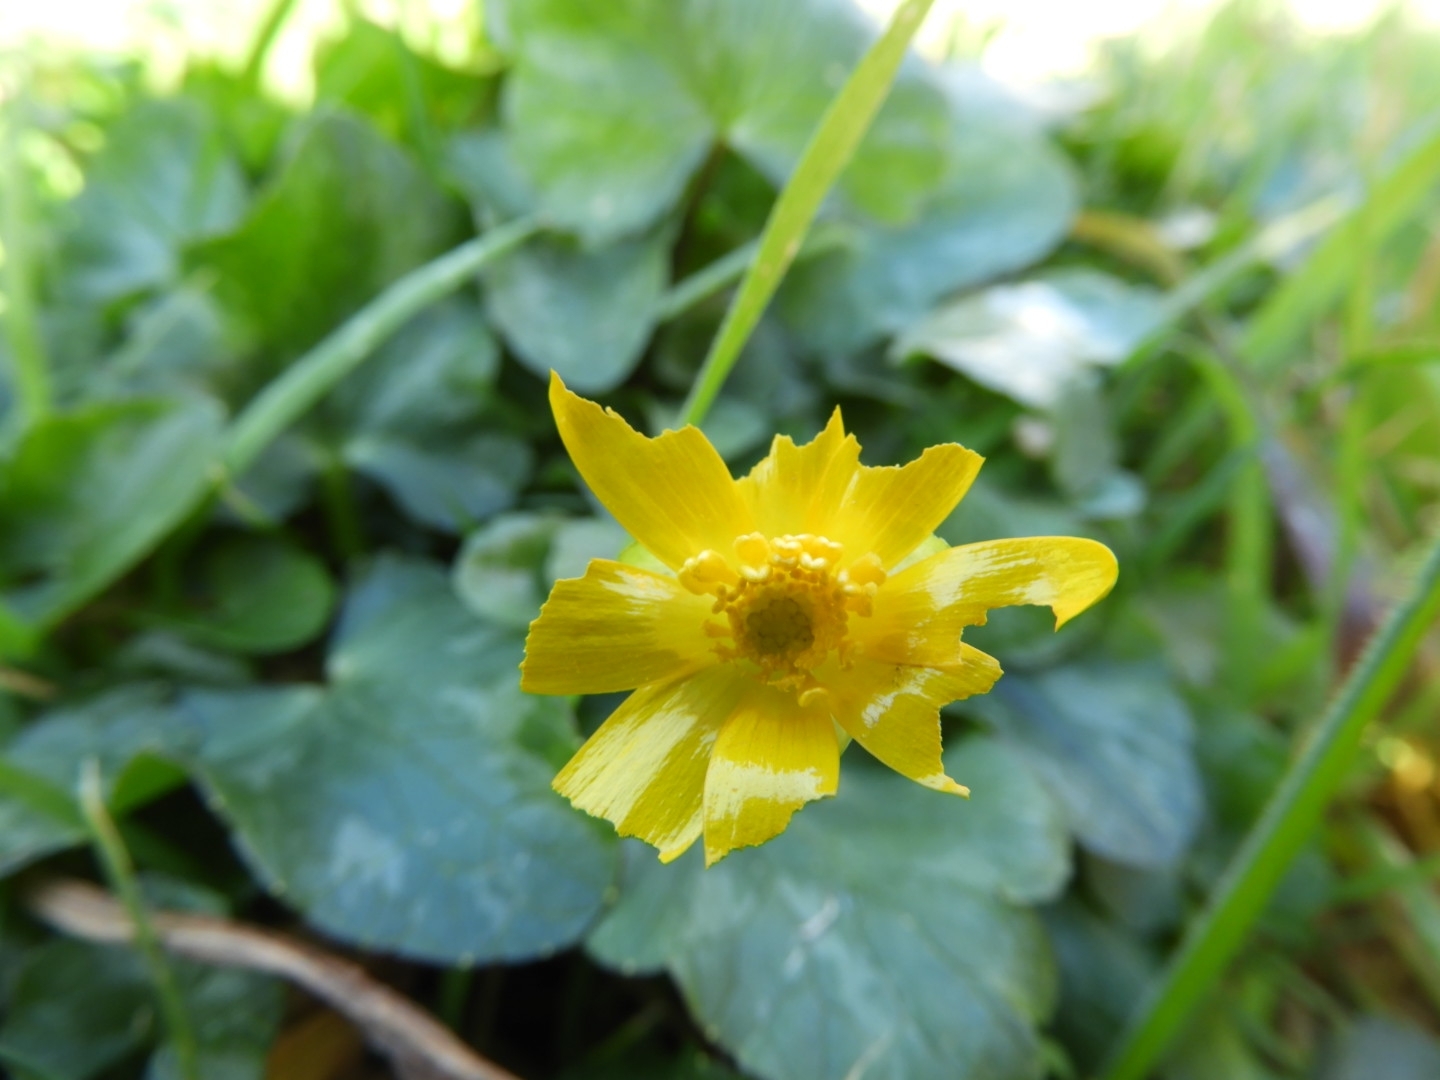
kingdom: Plantae
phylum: Tracheophyta
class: Magnoliopsida
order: Ranunculales
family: Ranunculaceae
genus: Ficaria
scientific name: Ficaria verna
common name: Lesser celandine
